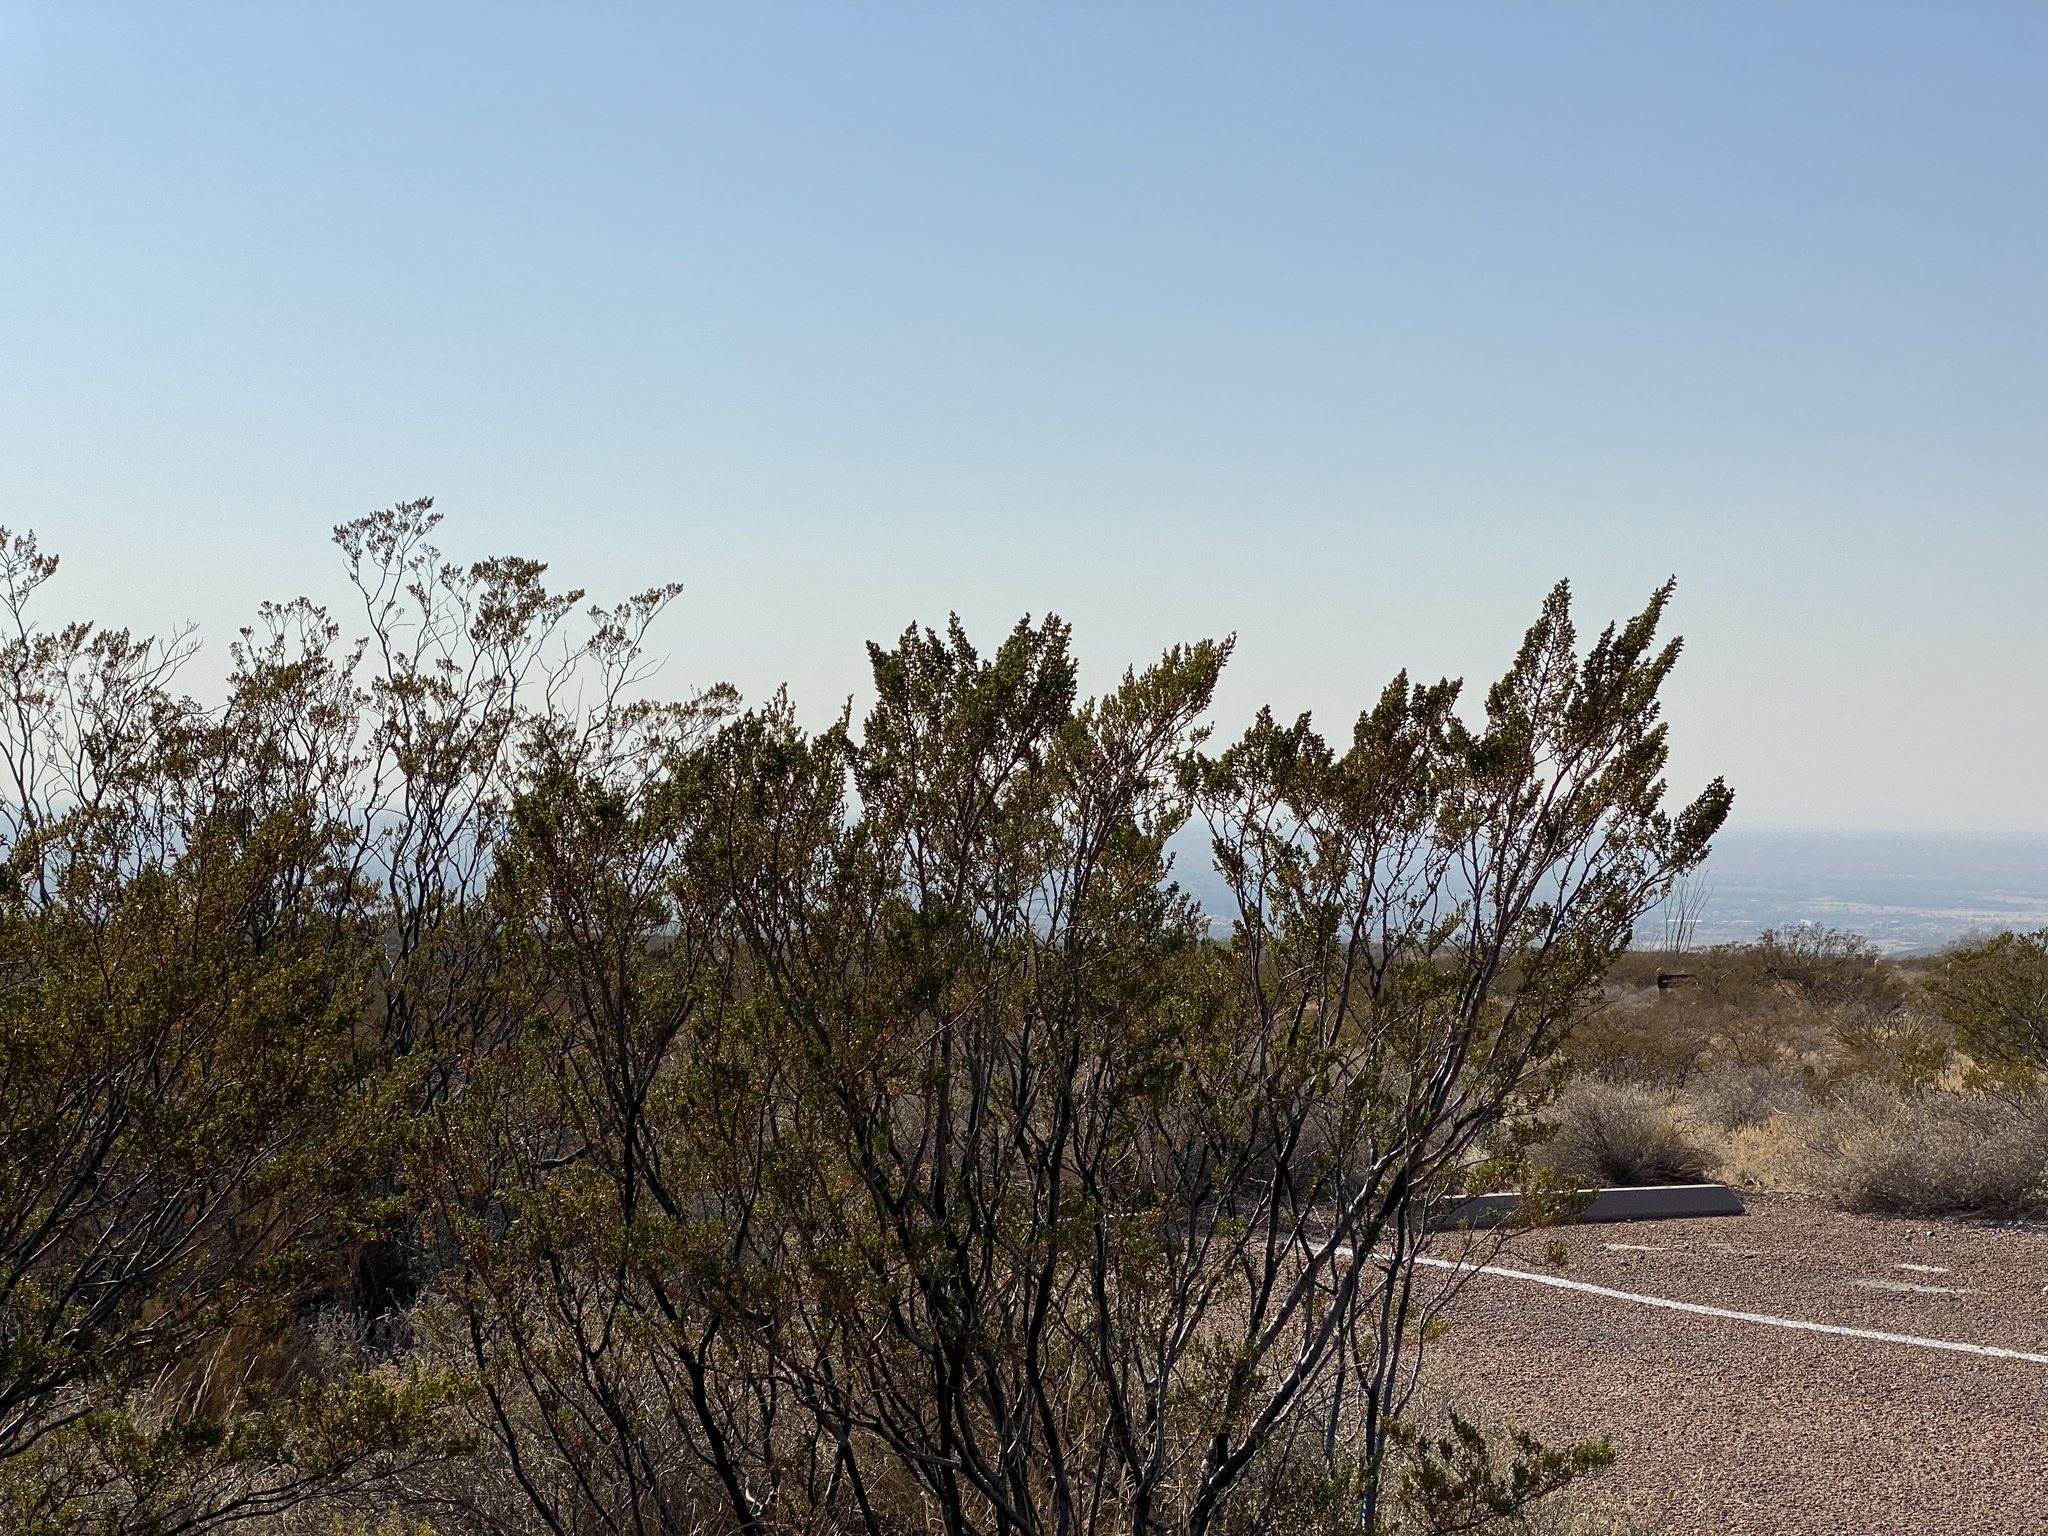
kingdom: Plantae
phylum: Tracheophyta
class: Magnoliopsida
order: Zygophyllales
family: Zygophyllaceae
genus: Larrea
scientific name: Larrea tridentata
